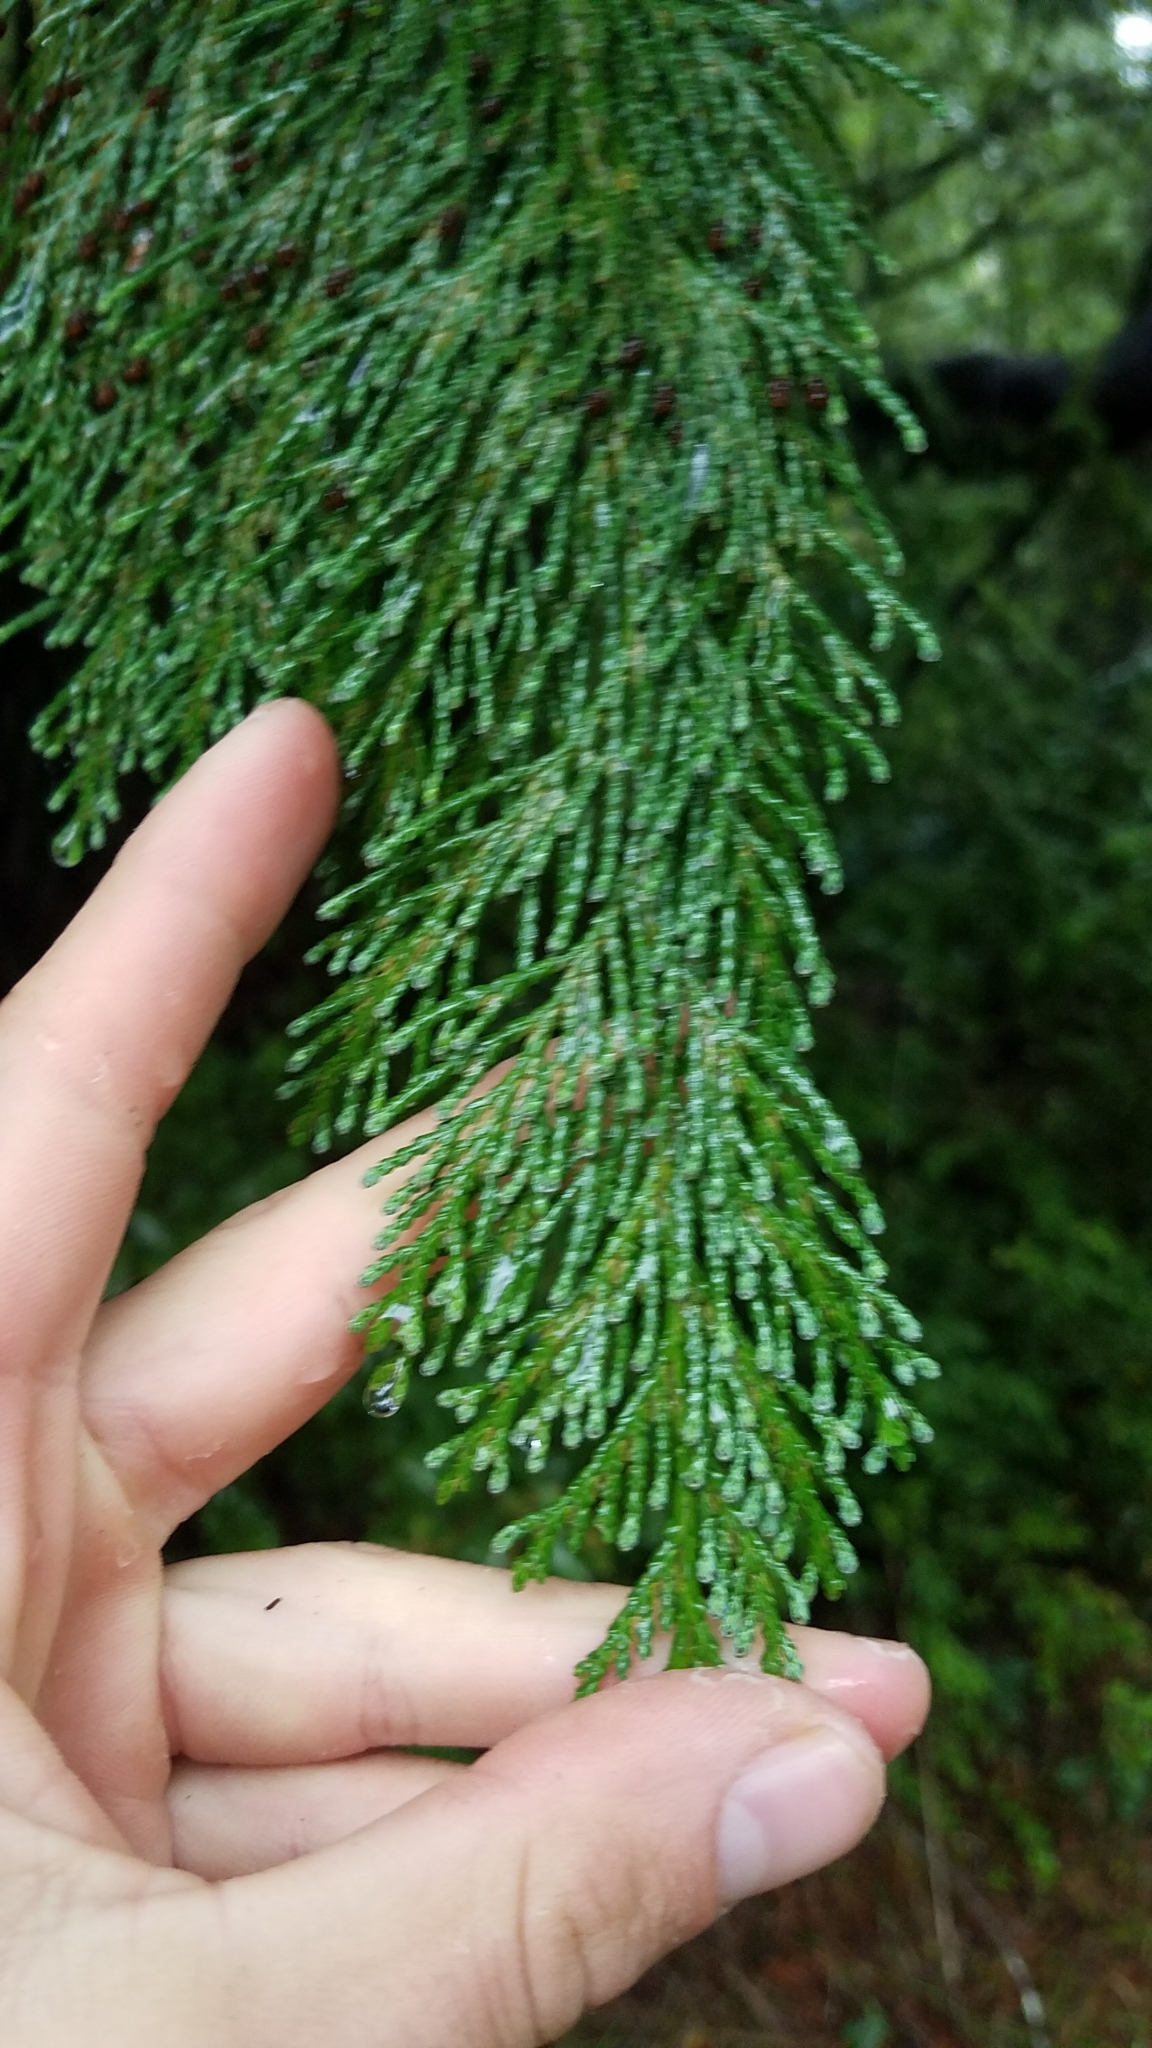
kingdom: Plantae
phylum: Tracheophyta
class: Pinopsida
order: Pinales
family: Cupressaceae
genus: Chamaecyparis
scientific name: Chamaecyparis lawsoniana
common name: Lawson's cypress
